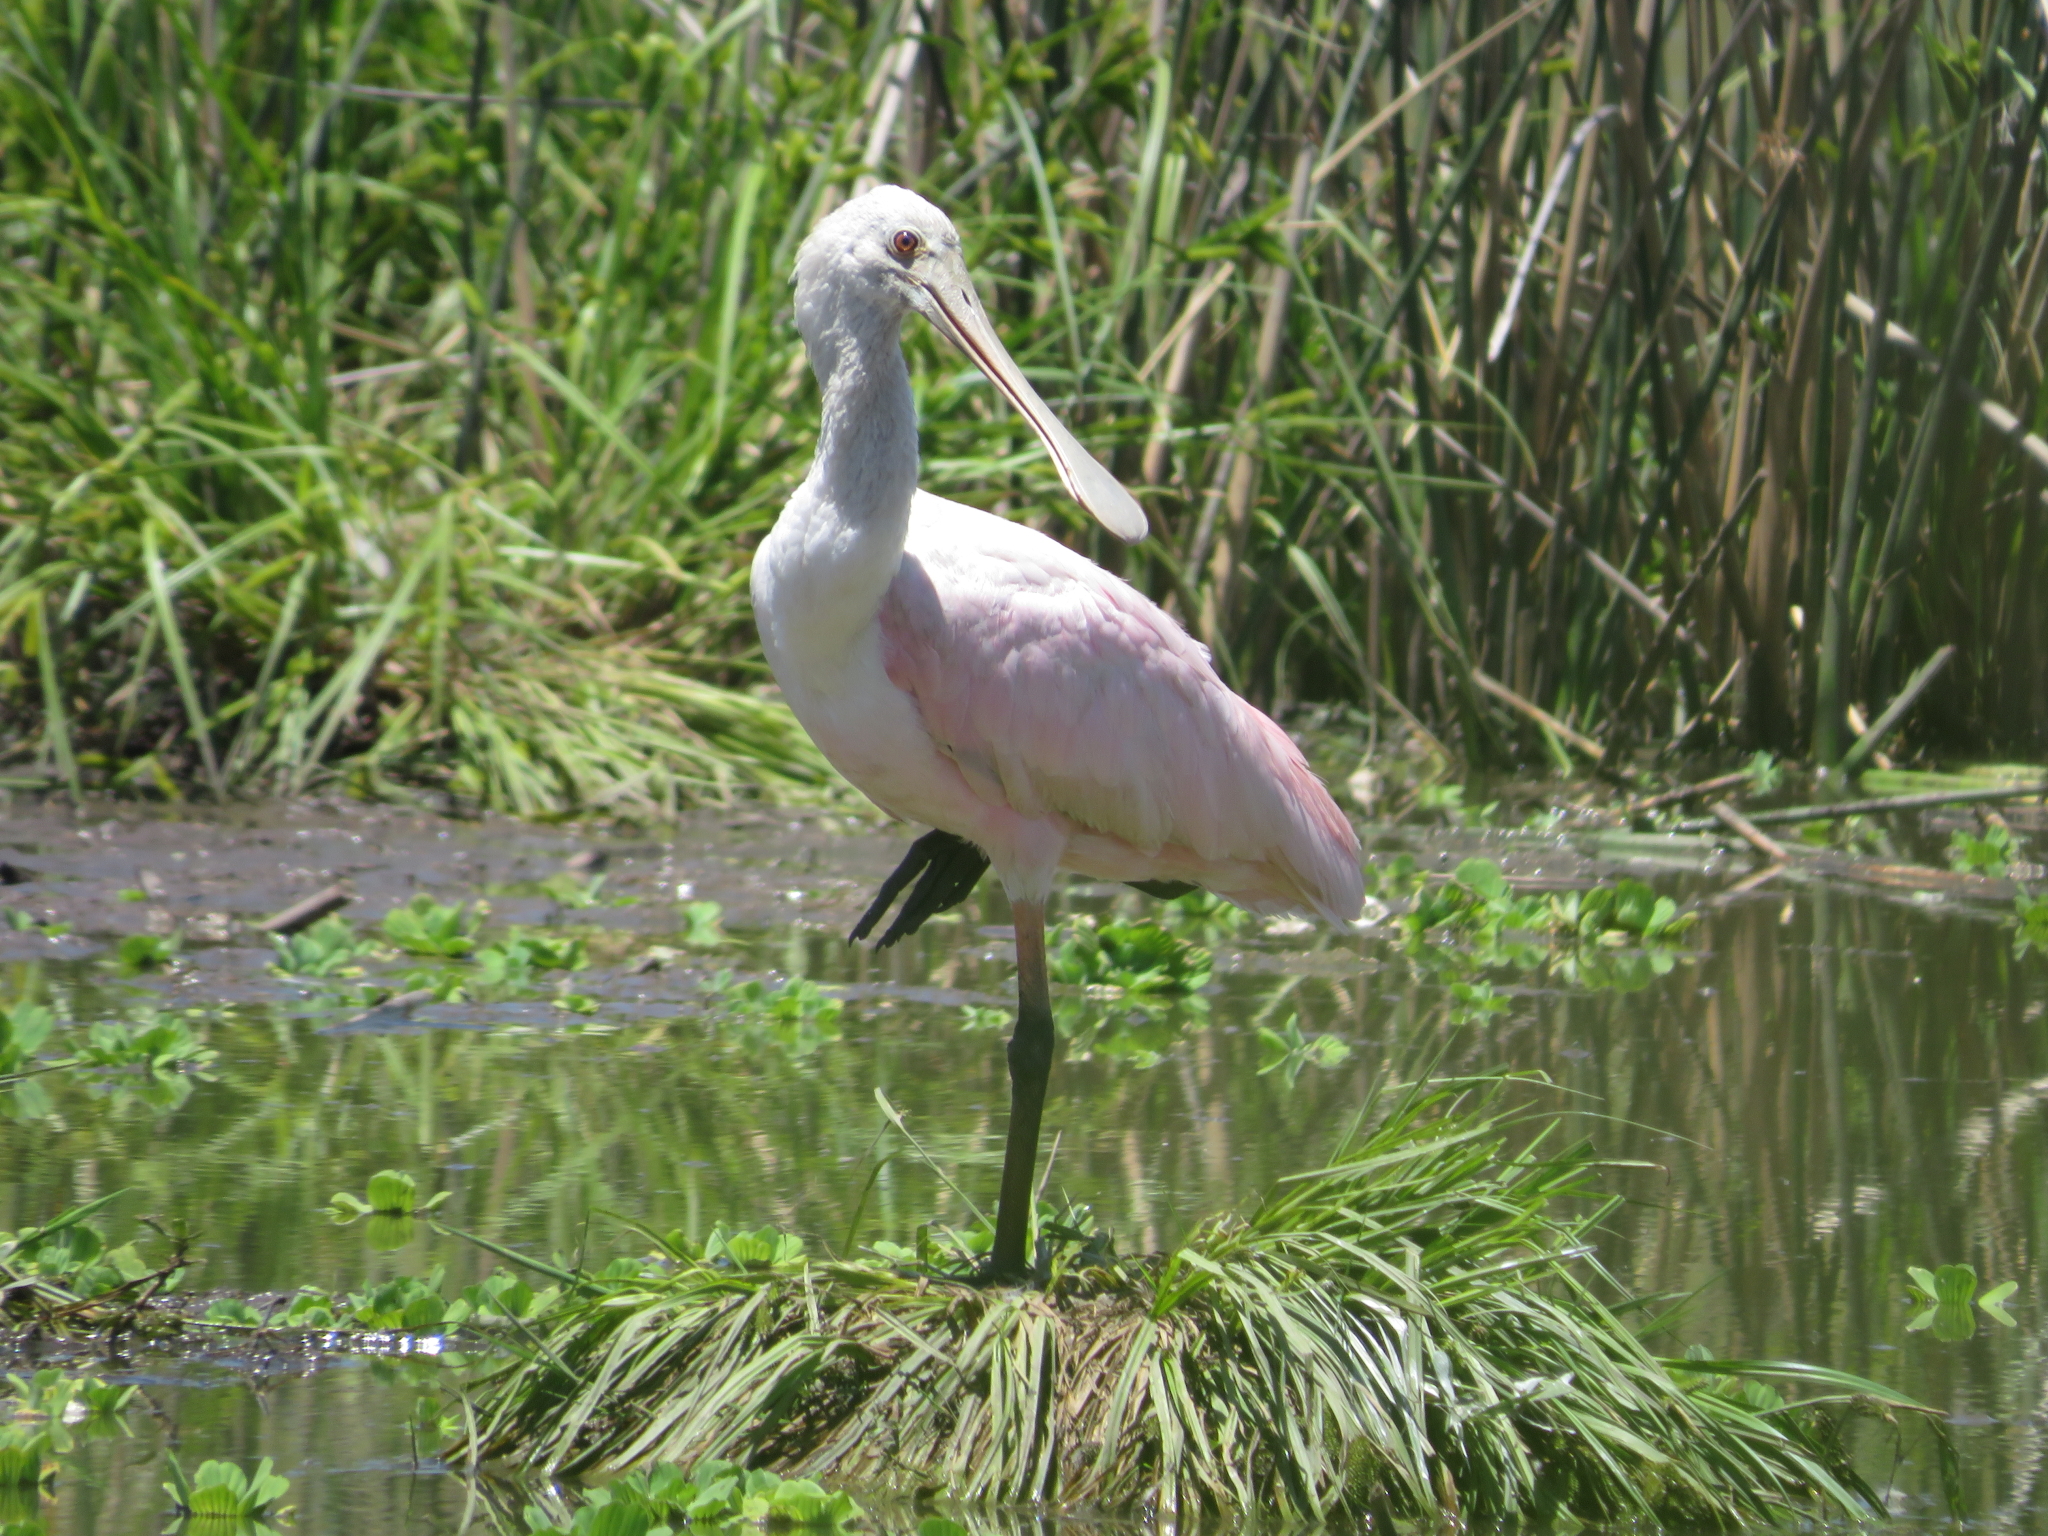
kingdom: Animalia
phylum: Chordata
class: Aves
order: Pelecaniformes
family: Threskiornithidae
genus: Platalea
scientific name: Platalea ajaja
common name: Roseate spoonbill
